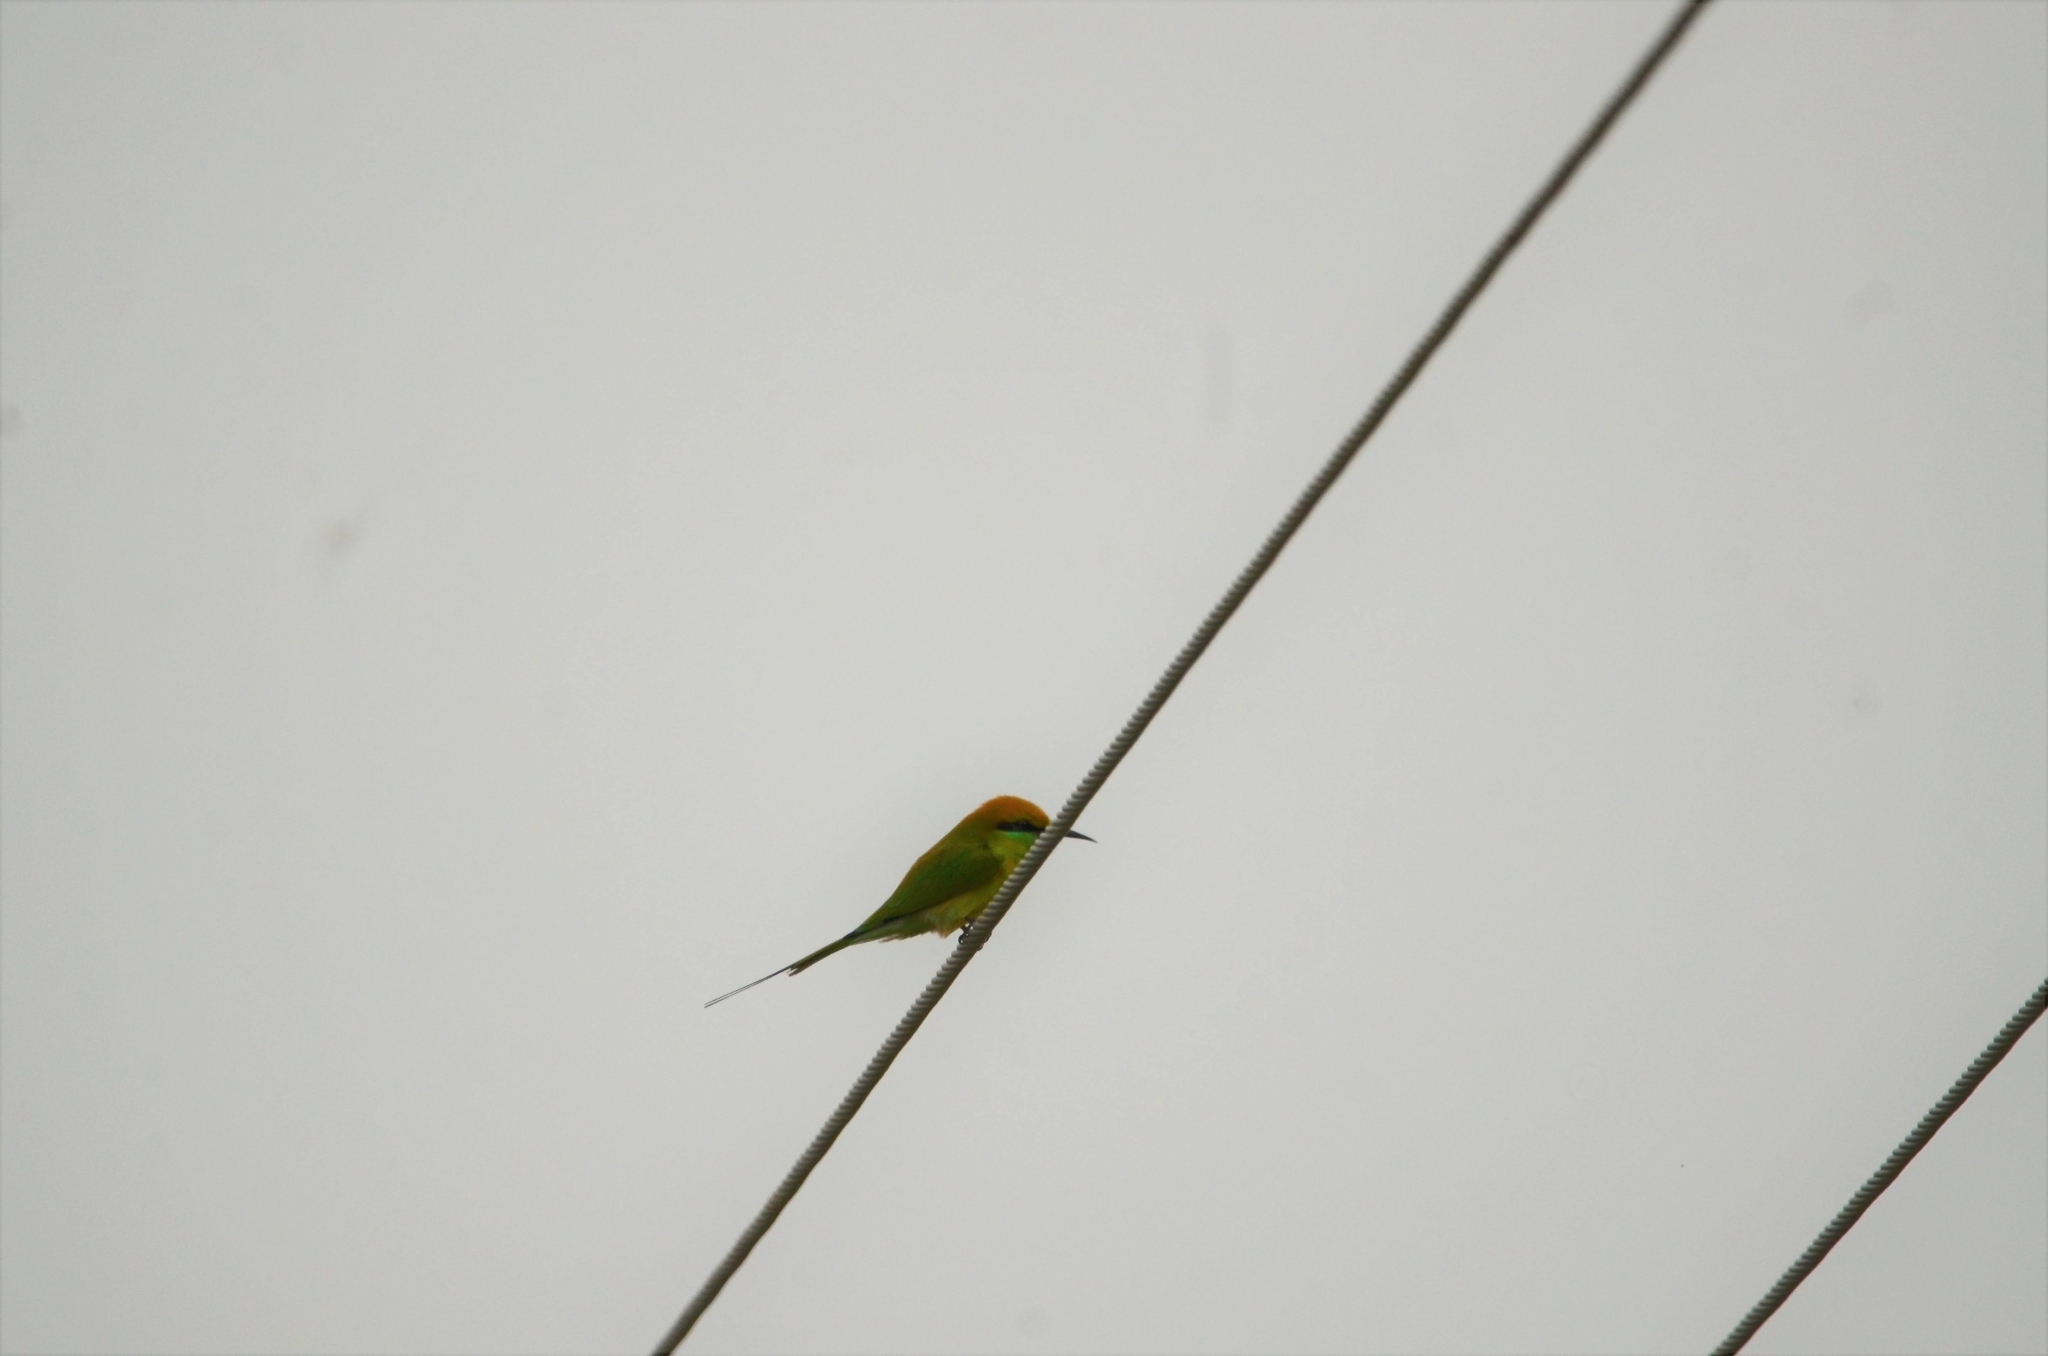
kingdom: Animalia
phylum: Chordata
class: Aves
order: Coraciiformes
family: Meropidae
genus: Merops
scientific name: Merops orientalis
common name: Green bee-eater
